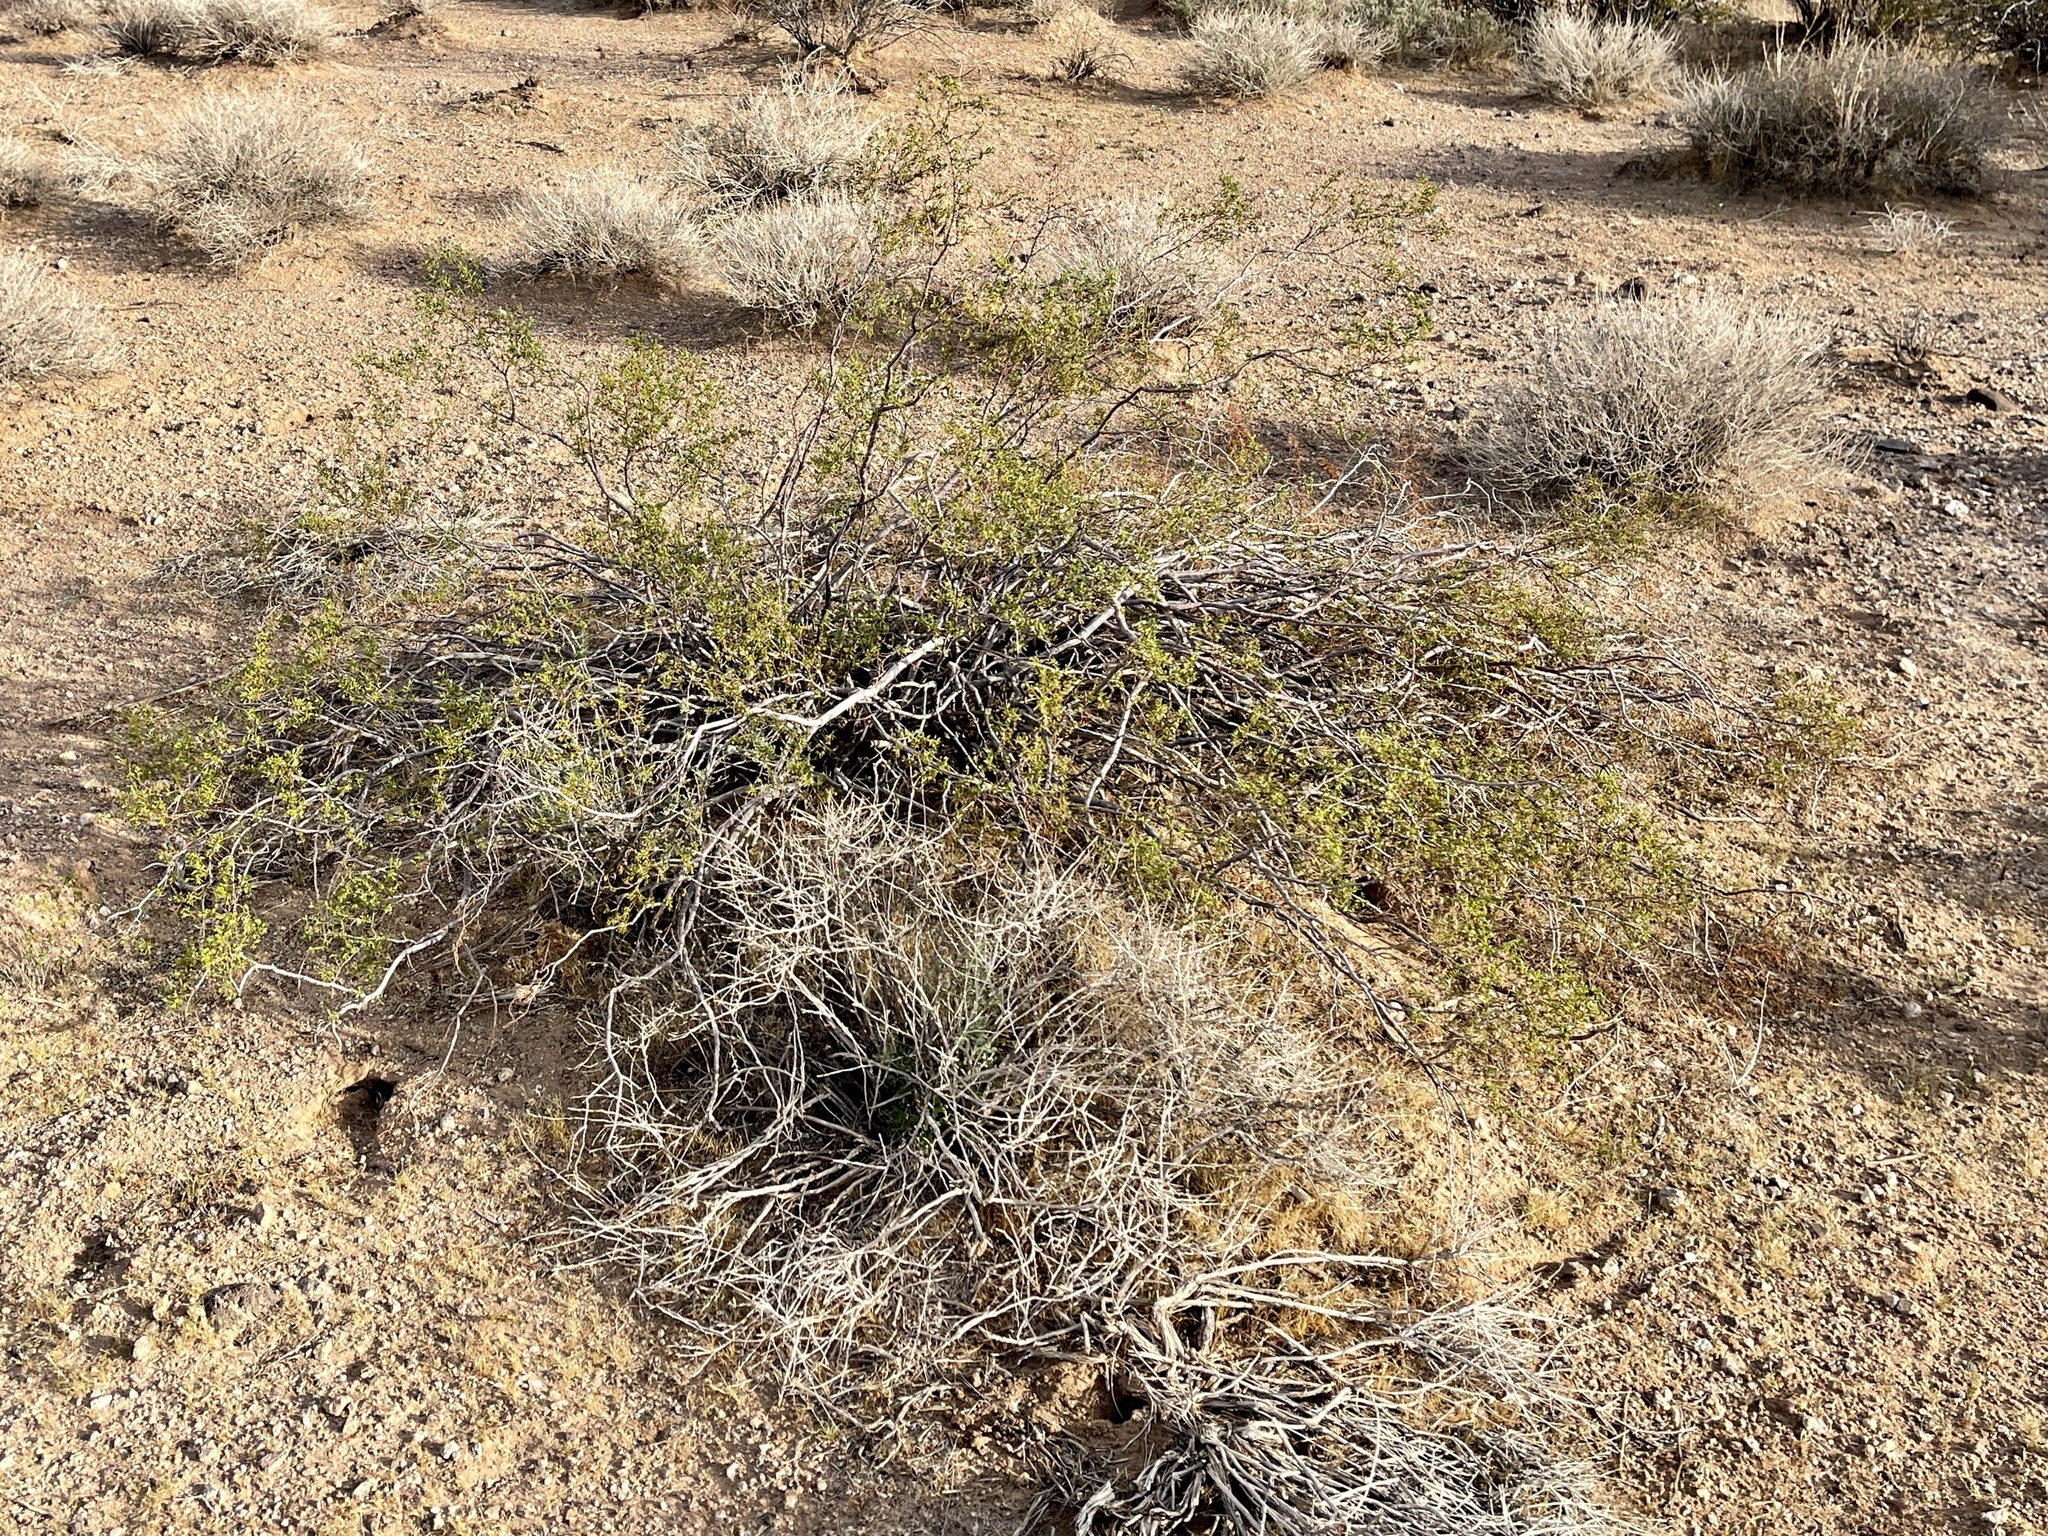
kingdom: Plantae
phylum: Tracheophyta
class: Magnoliopsida
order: Zygophyllales
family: Zygophyllaceae
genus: Larrea
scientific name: Larrea tridentata
